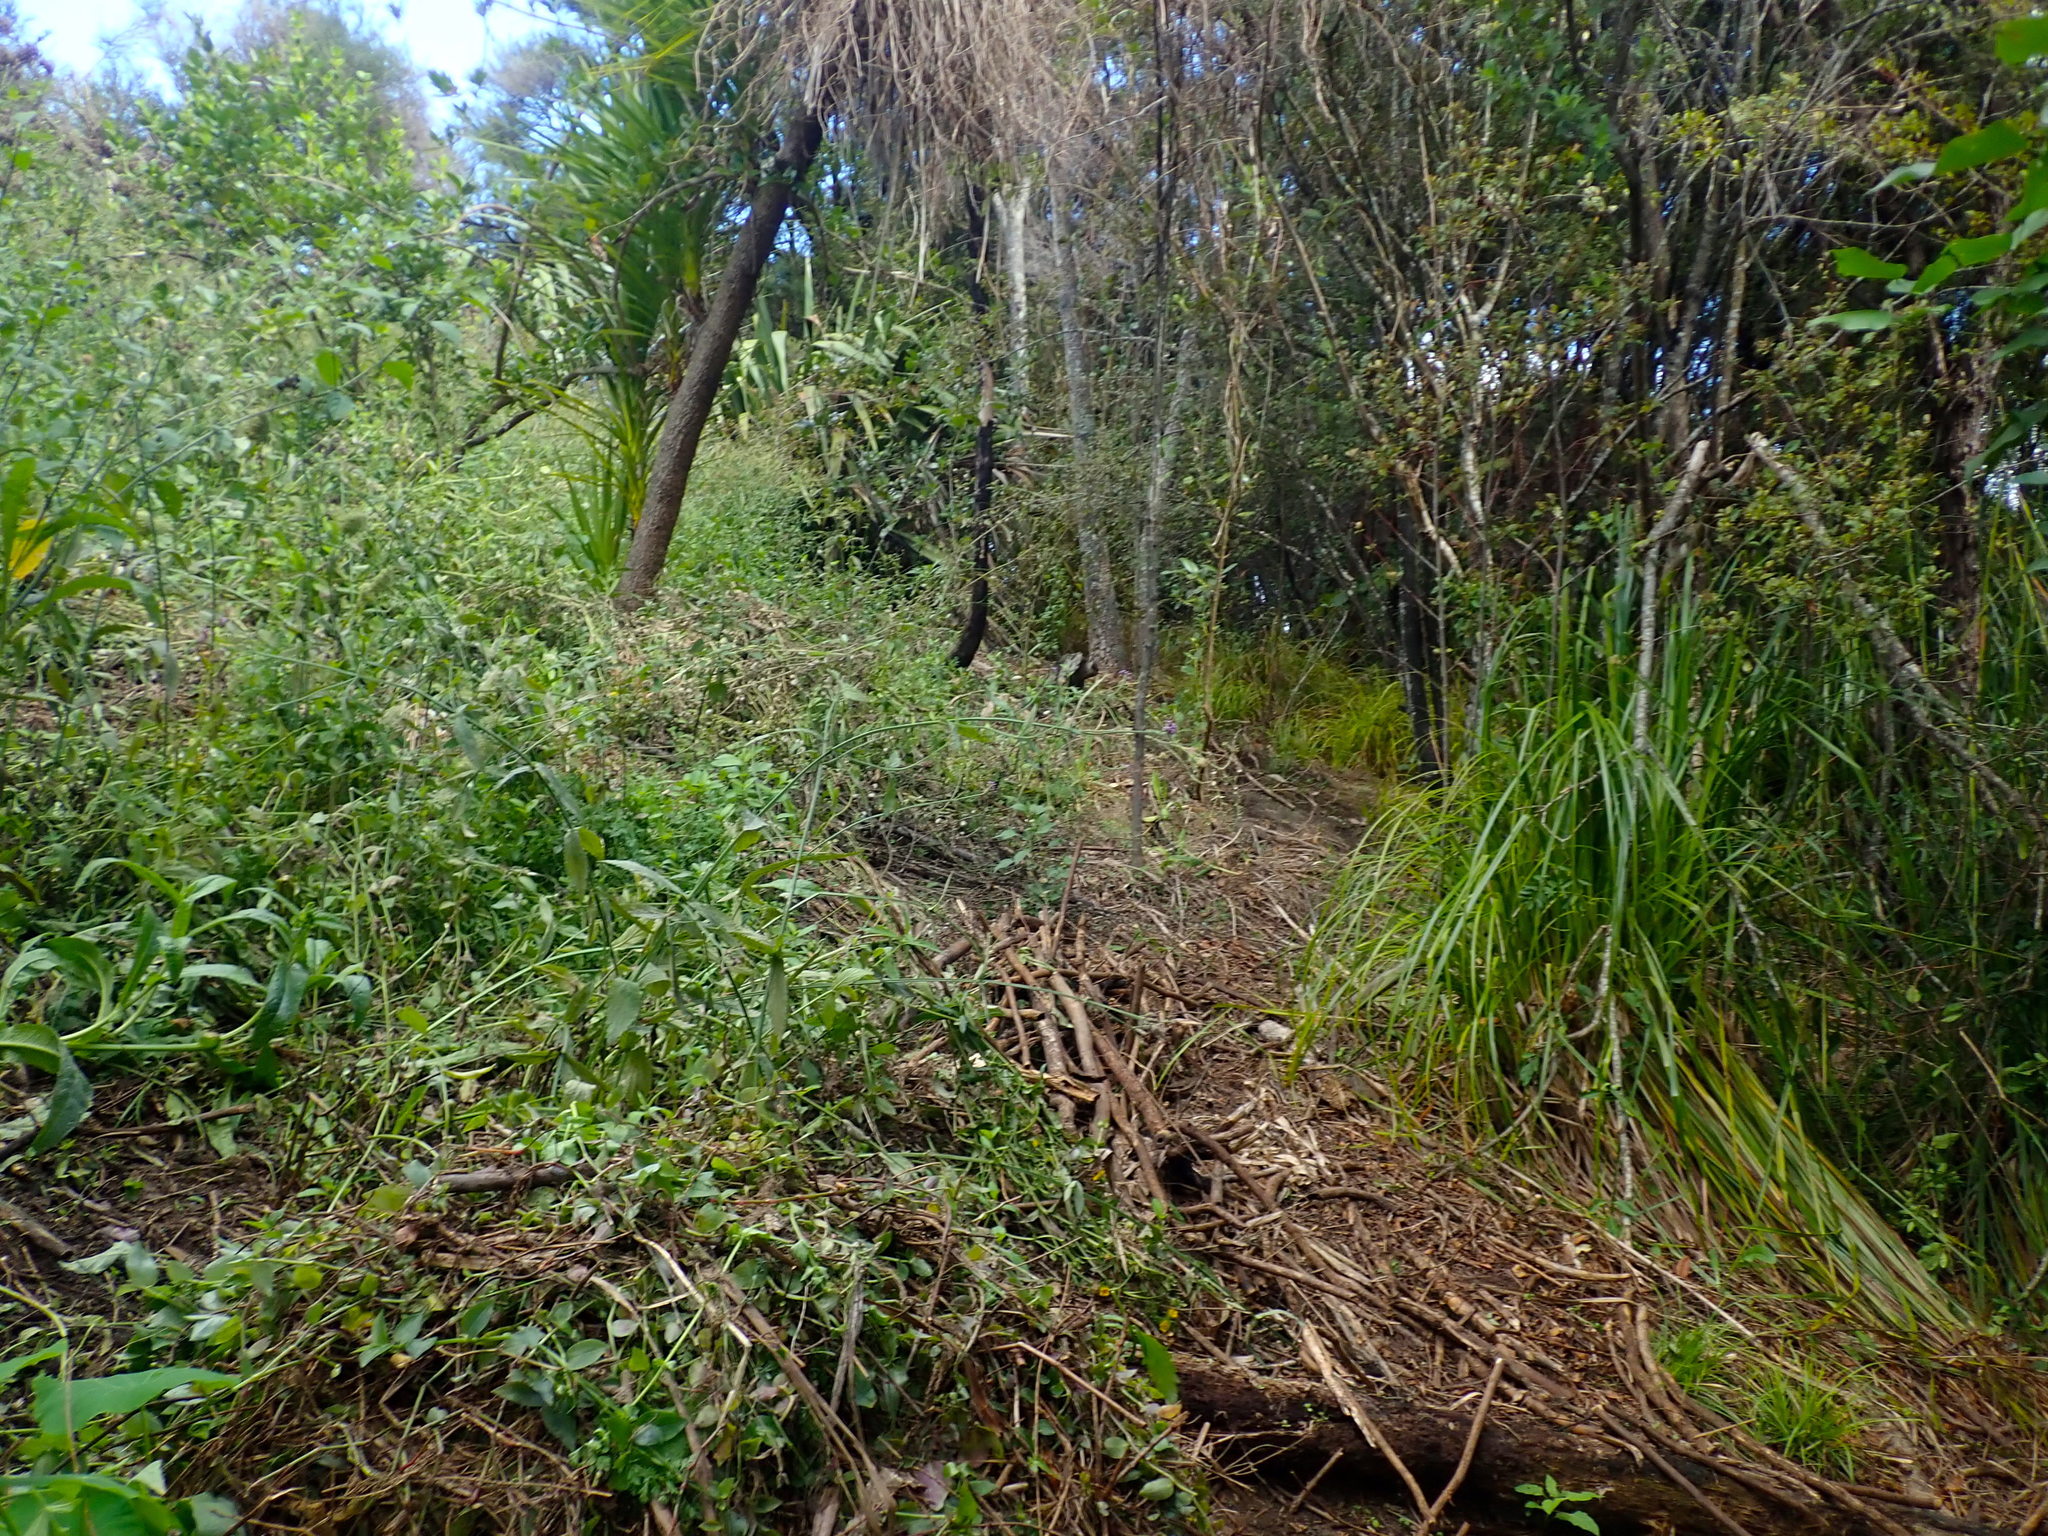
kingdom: Plantae
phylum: Tracheophyta
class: Liliopsida
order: Commelinales
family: Commelinaceae
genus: Tradescantia
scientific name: Tradescantia fluminensis
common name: Wandering-jew
